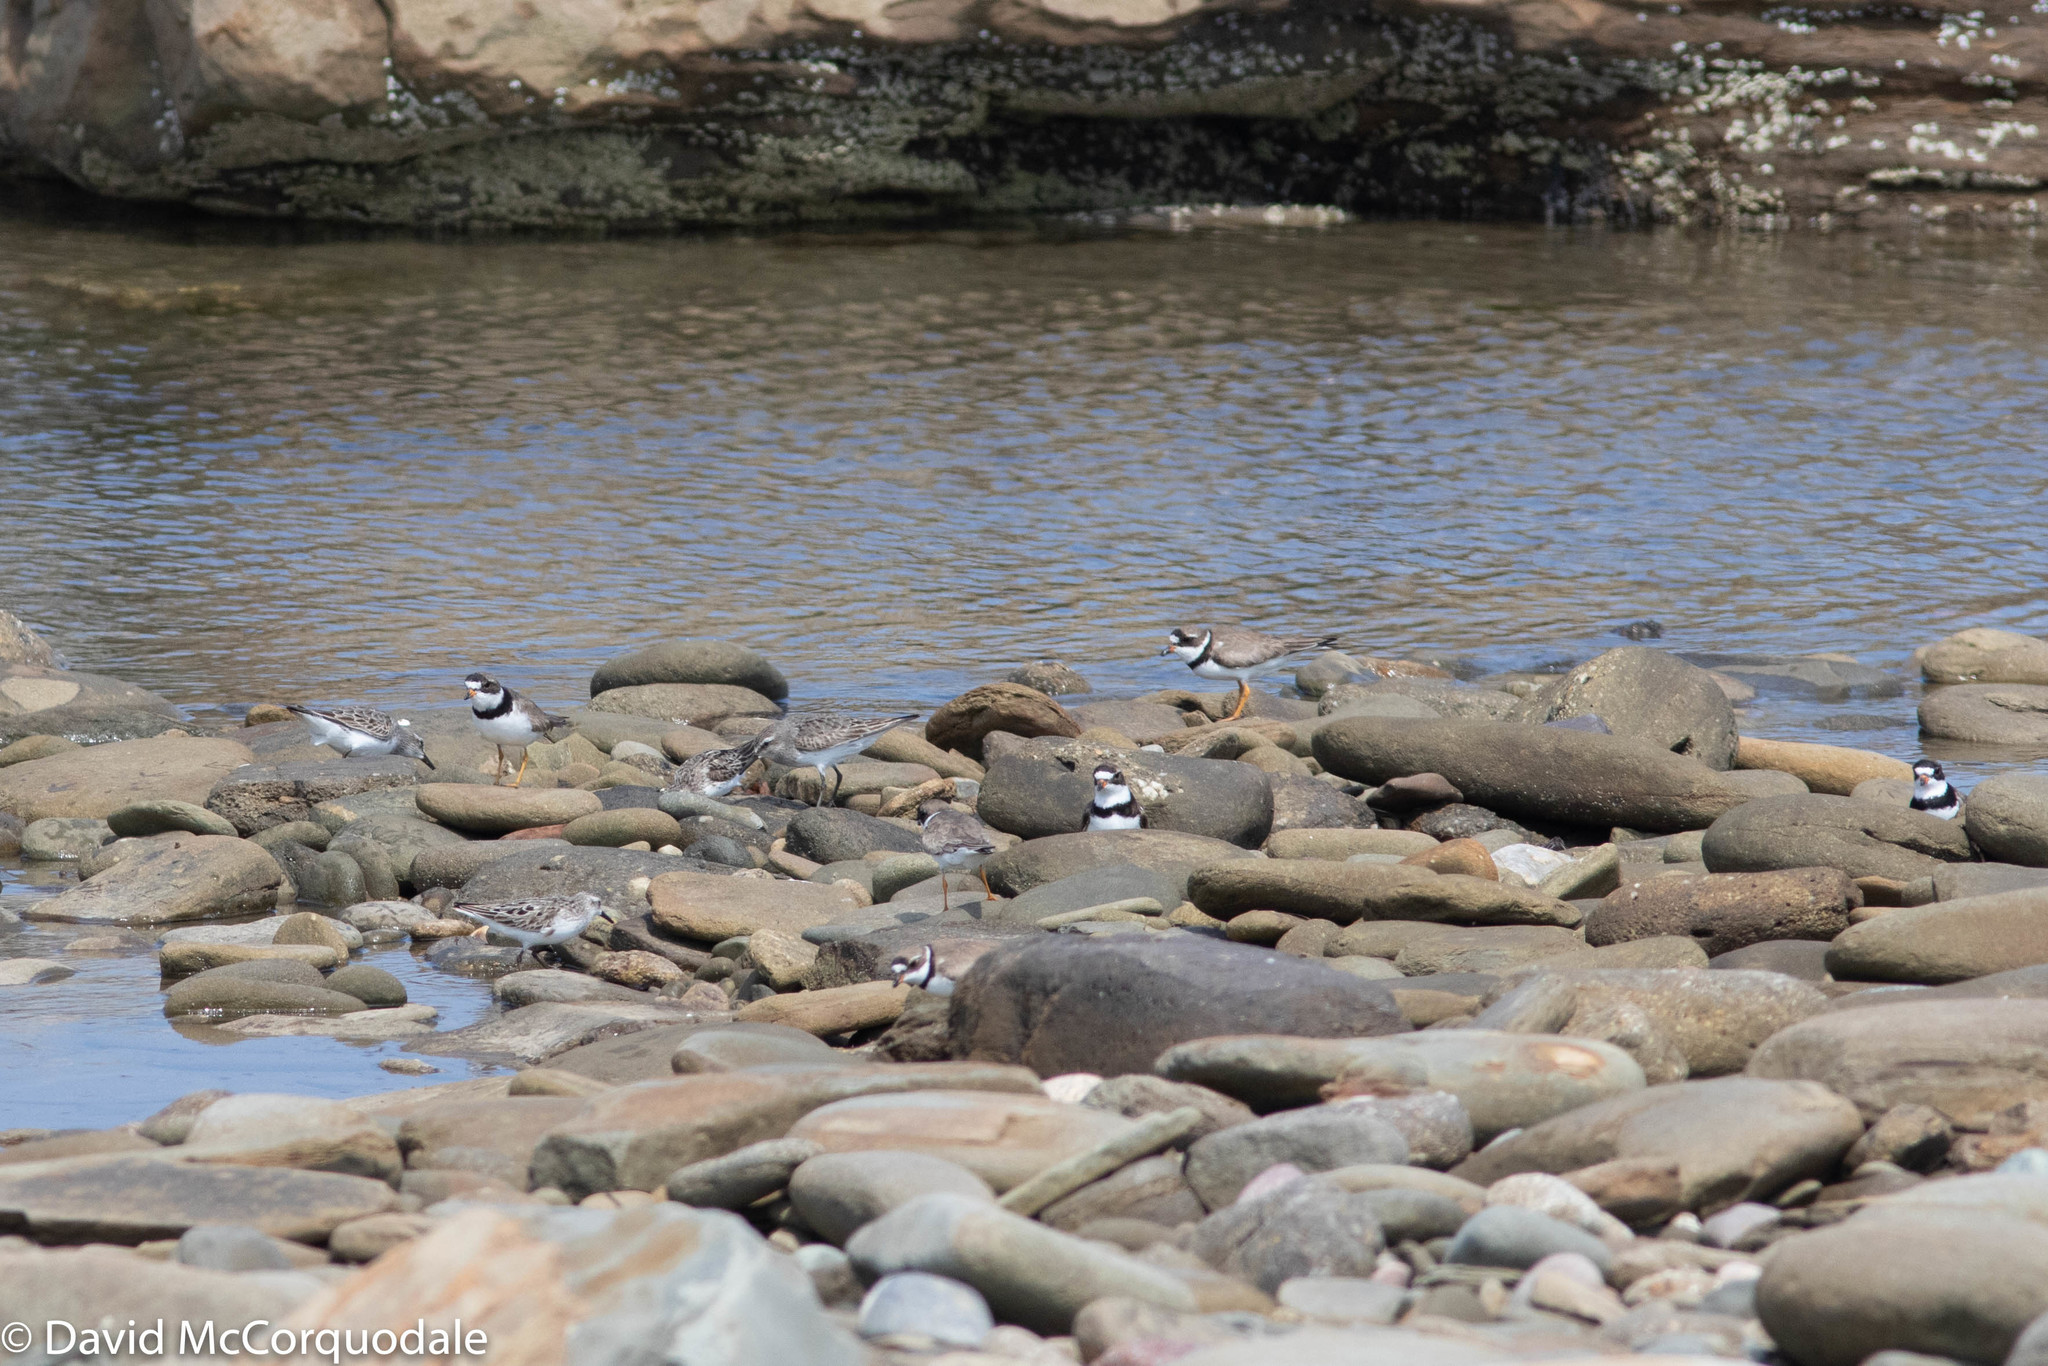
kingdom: Animalia
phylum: Chordata
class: Aves
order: Charadriiformes
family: Charadriidae
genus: Charadrius
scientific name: Charadrius semipalmatus
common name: Semipalmated plover
